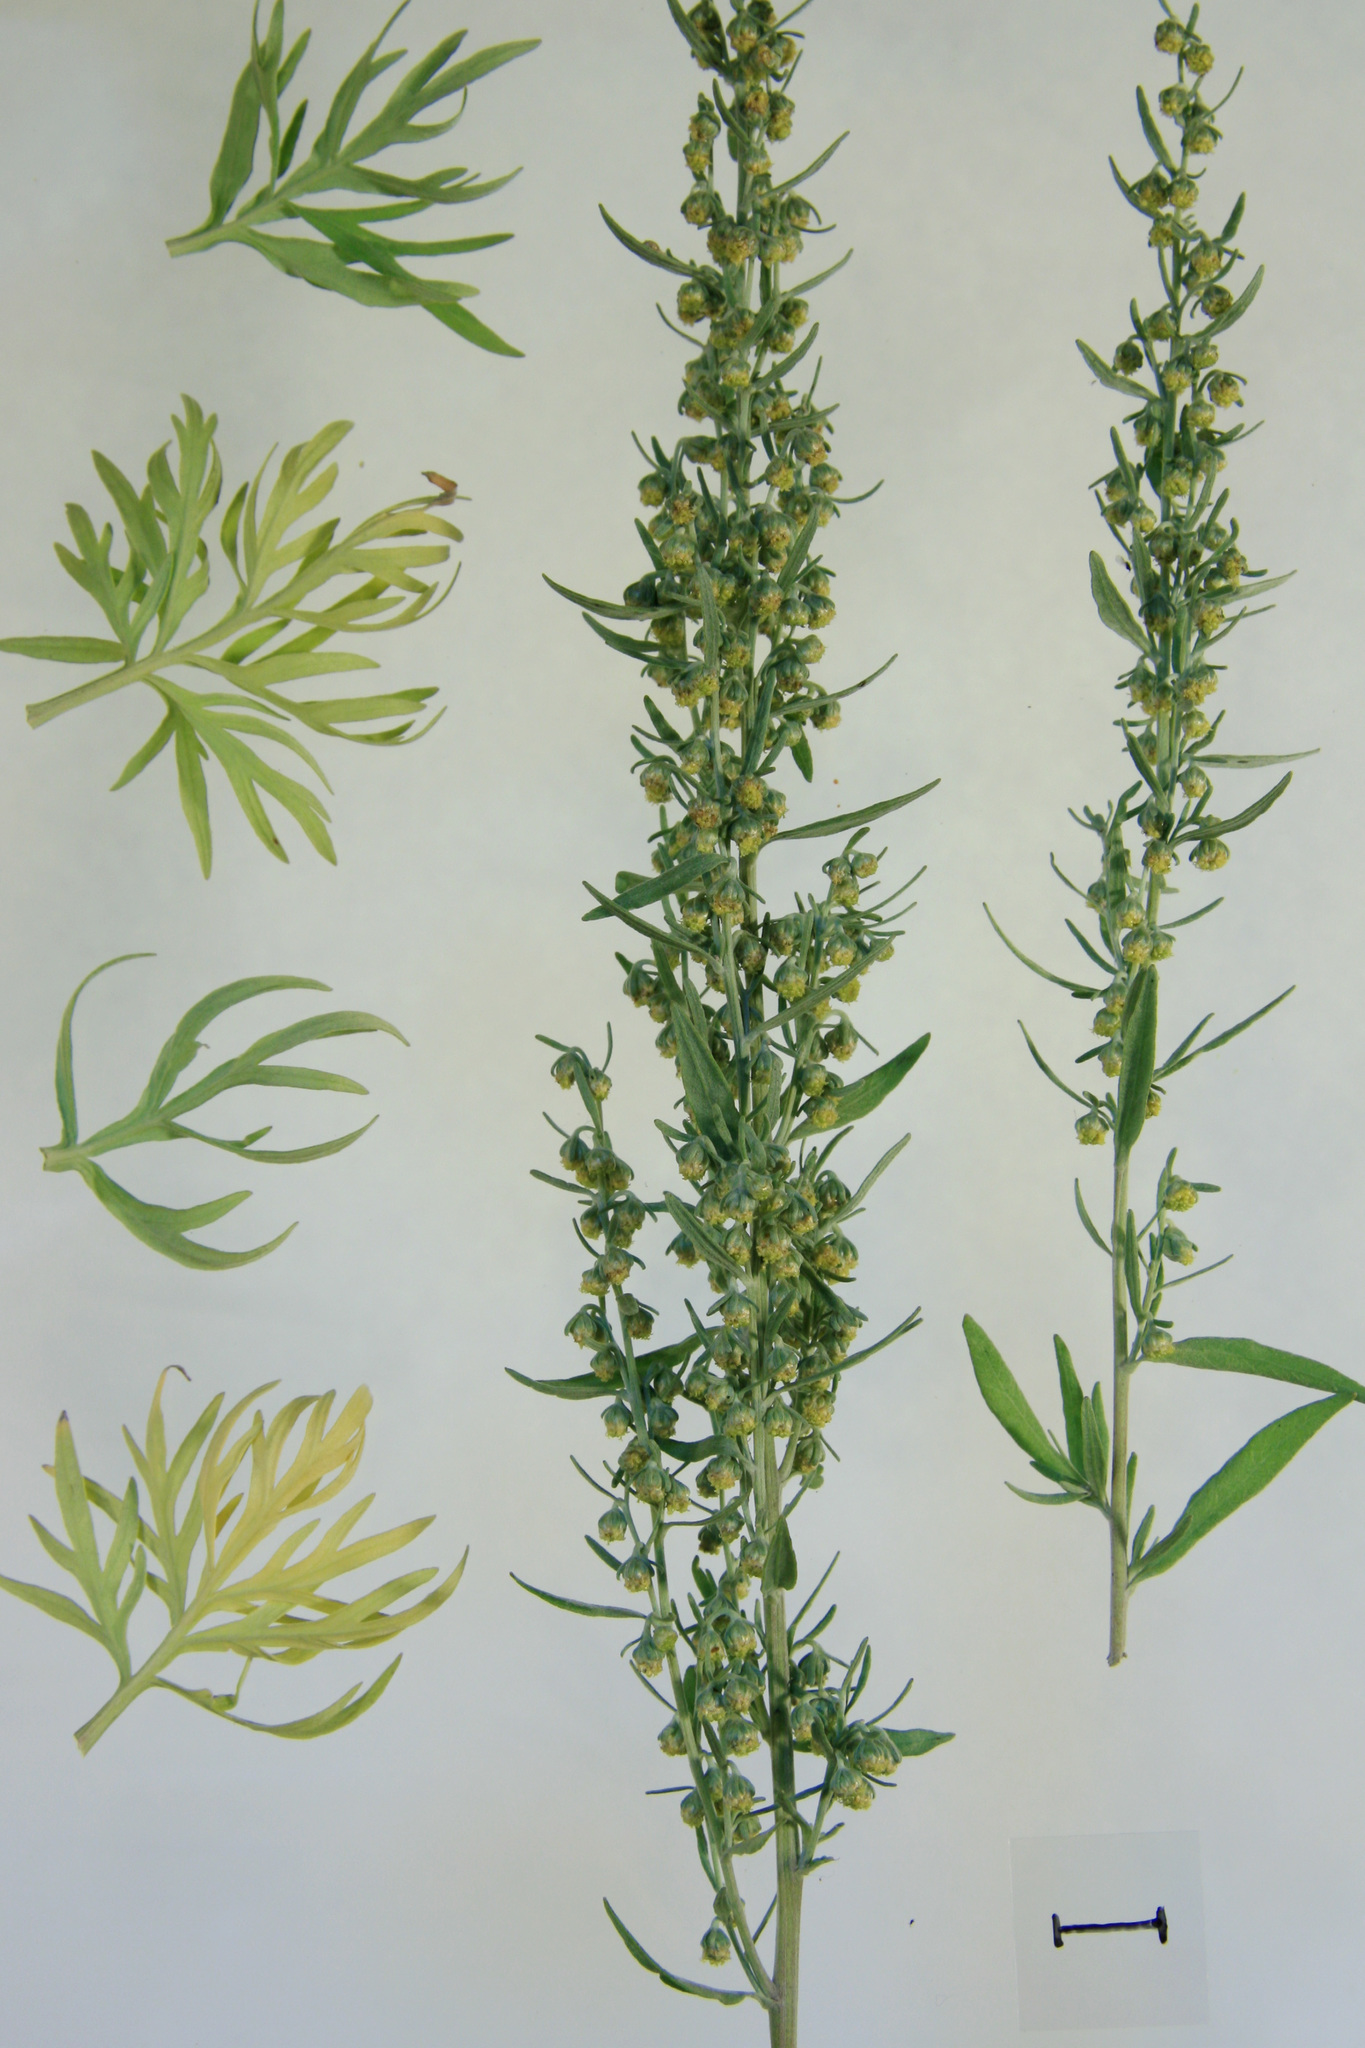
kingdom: Plantae
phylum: Tracheophyta
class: Magnoliopsida
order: Asterales
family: Asteraceae
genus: Artemisia
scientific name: Artemisia absinthium
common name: Wormwood
